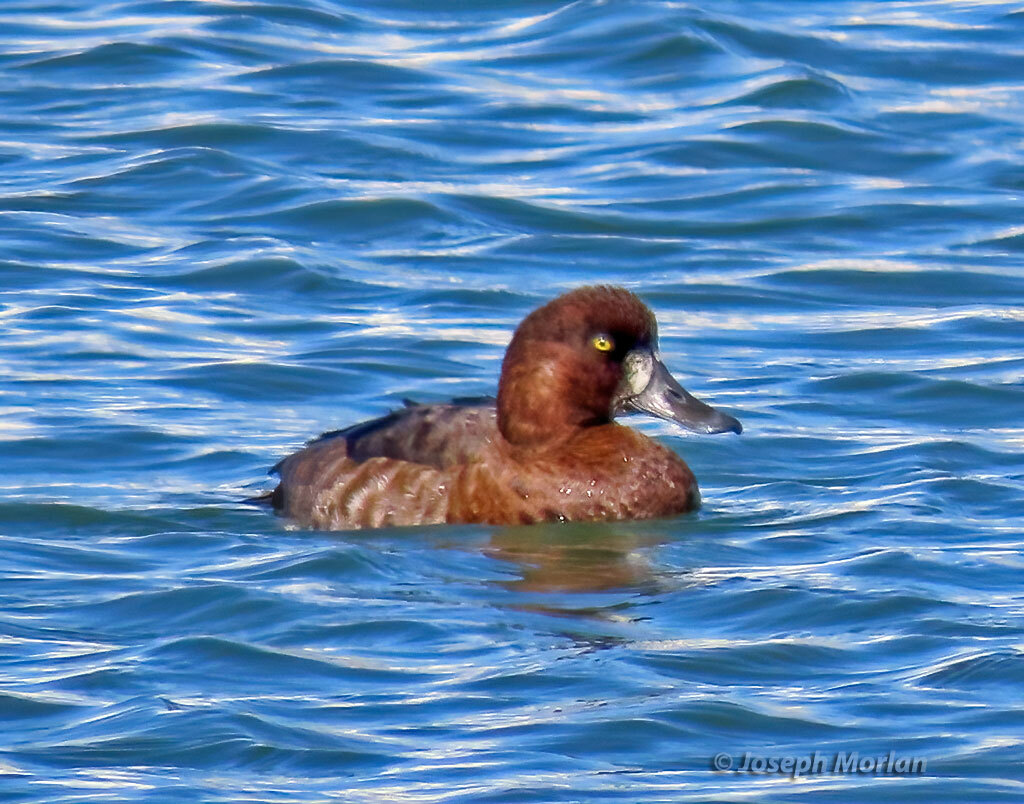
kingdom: Animalia
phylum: Chordata
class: Aves
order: Anseriformes
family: Anatidae
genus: Aythya
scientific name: Aythya marila
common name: Greater scaup
